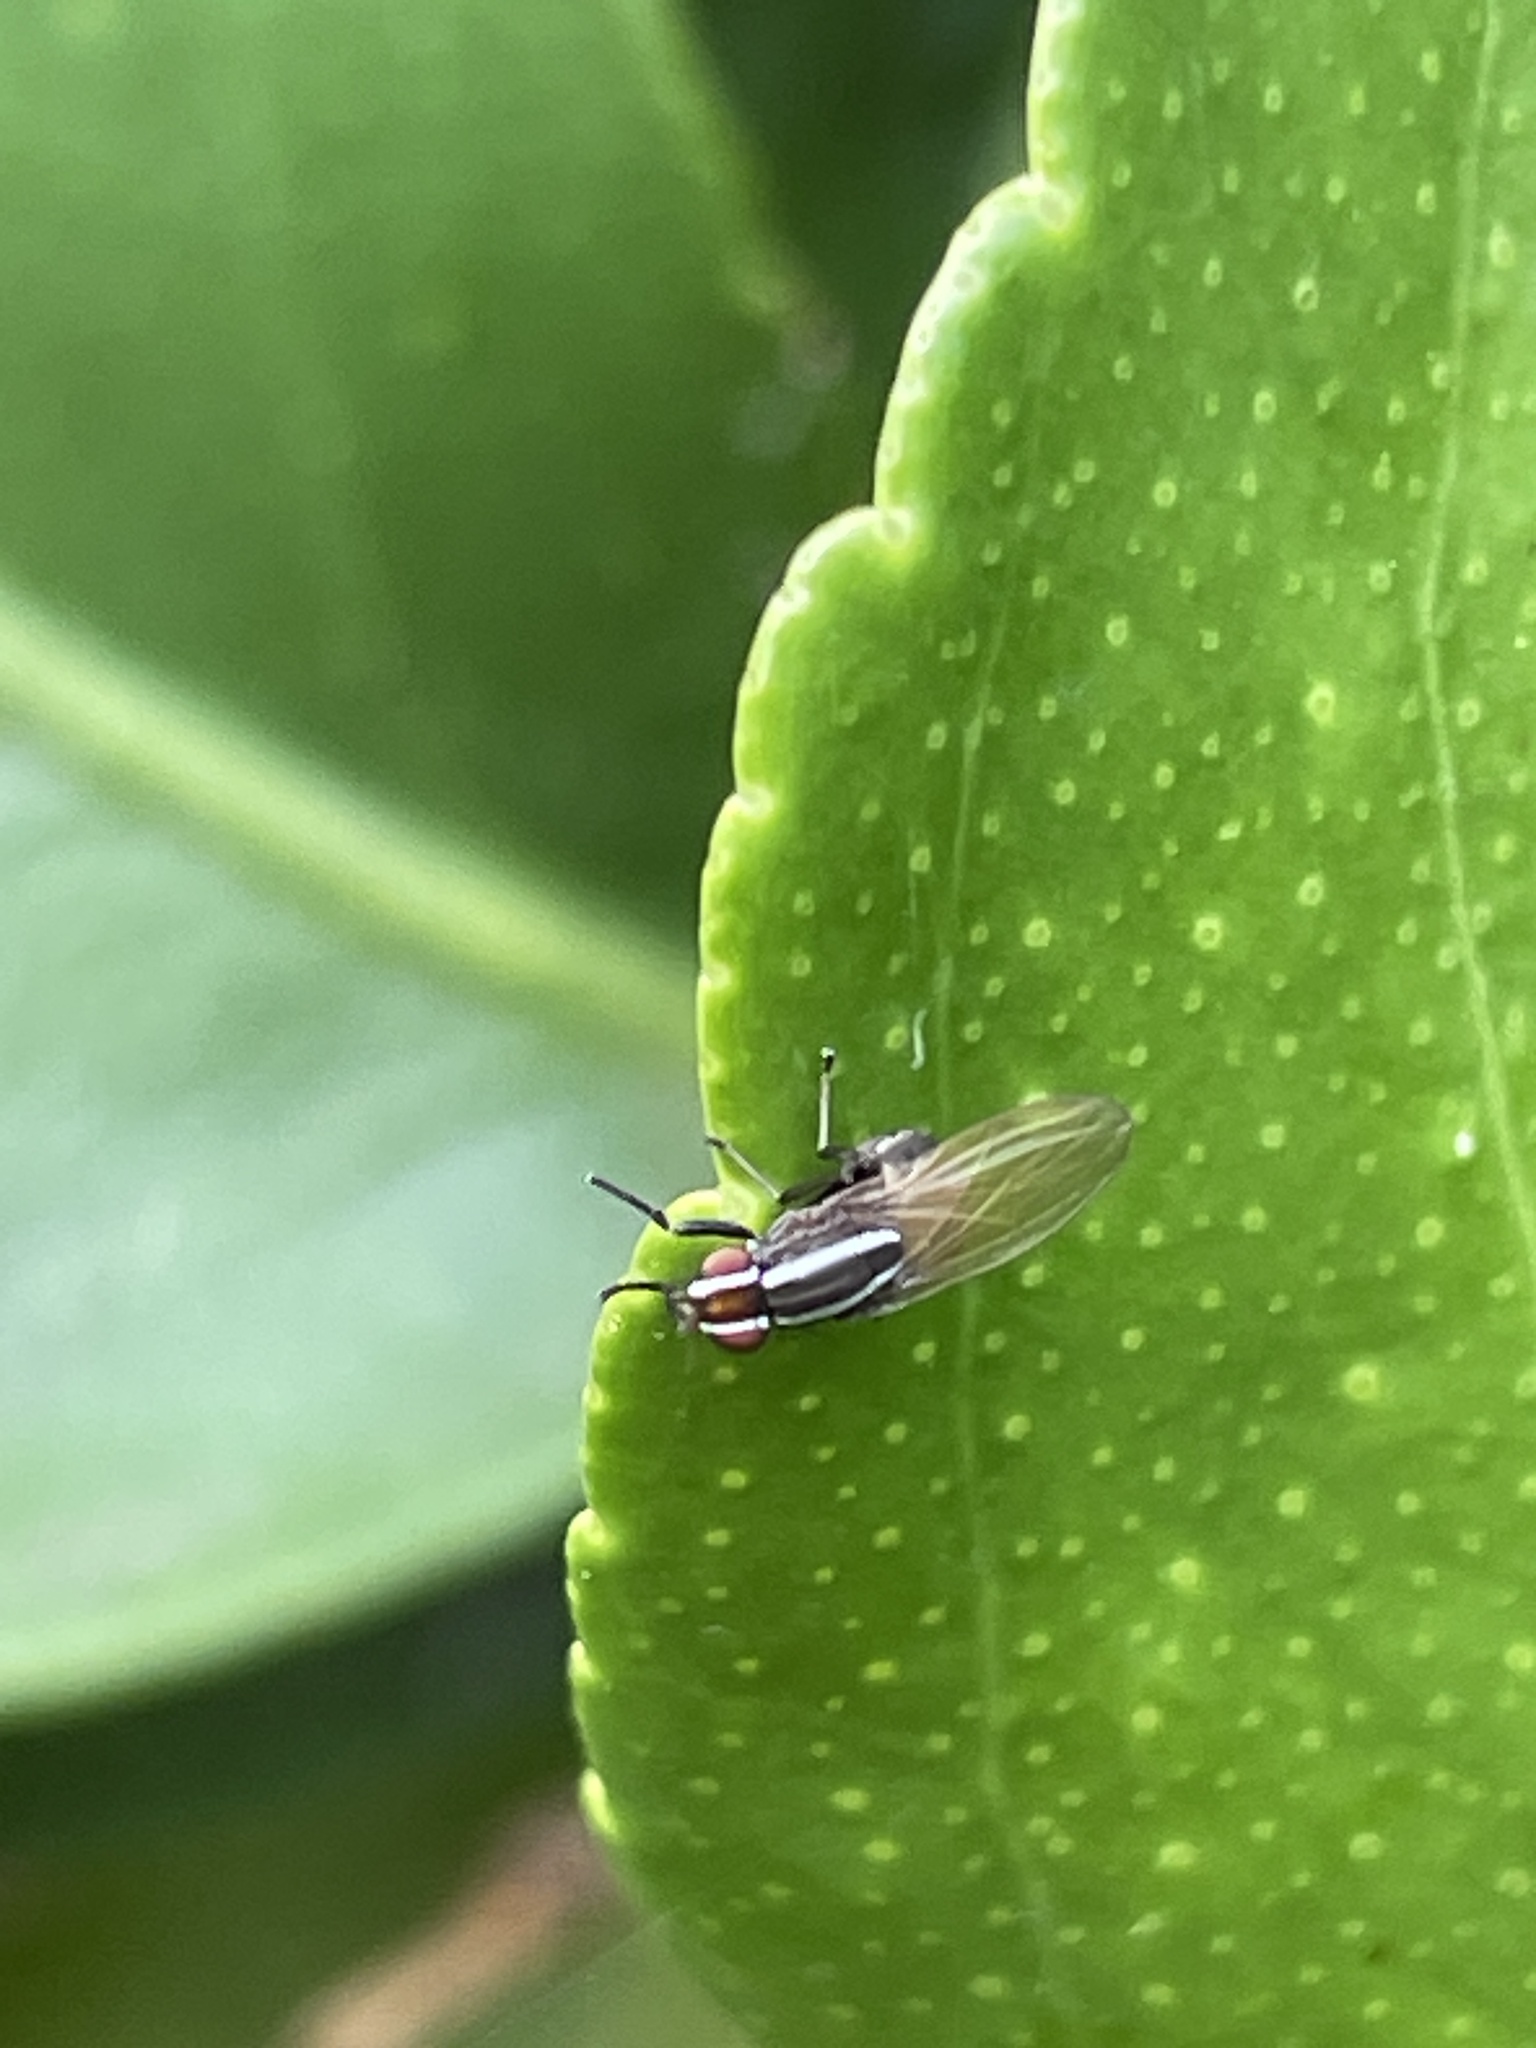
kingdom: Animalia
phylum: Arthropoda
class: Insecta
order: Diptera
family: Lauxaniidae
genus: Poecilohetaerus
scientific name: Poecilohetaerus schineri
